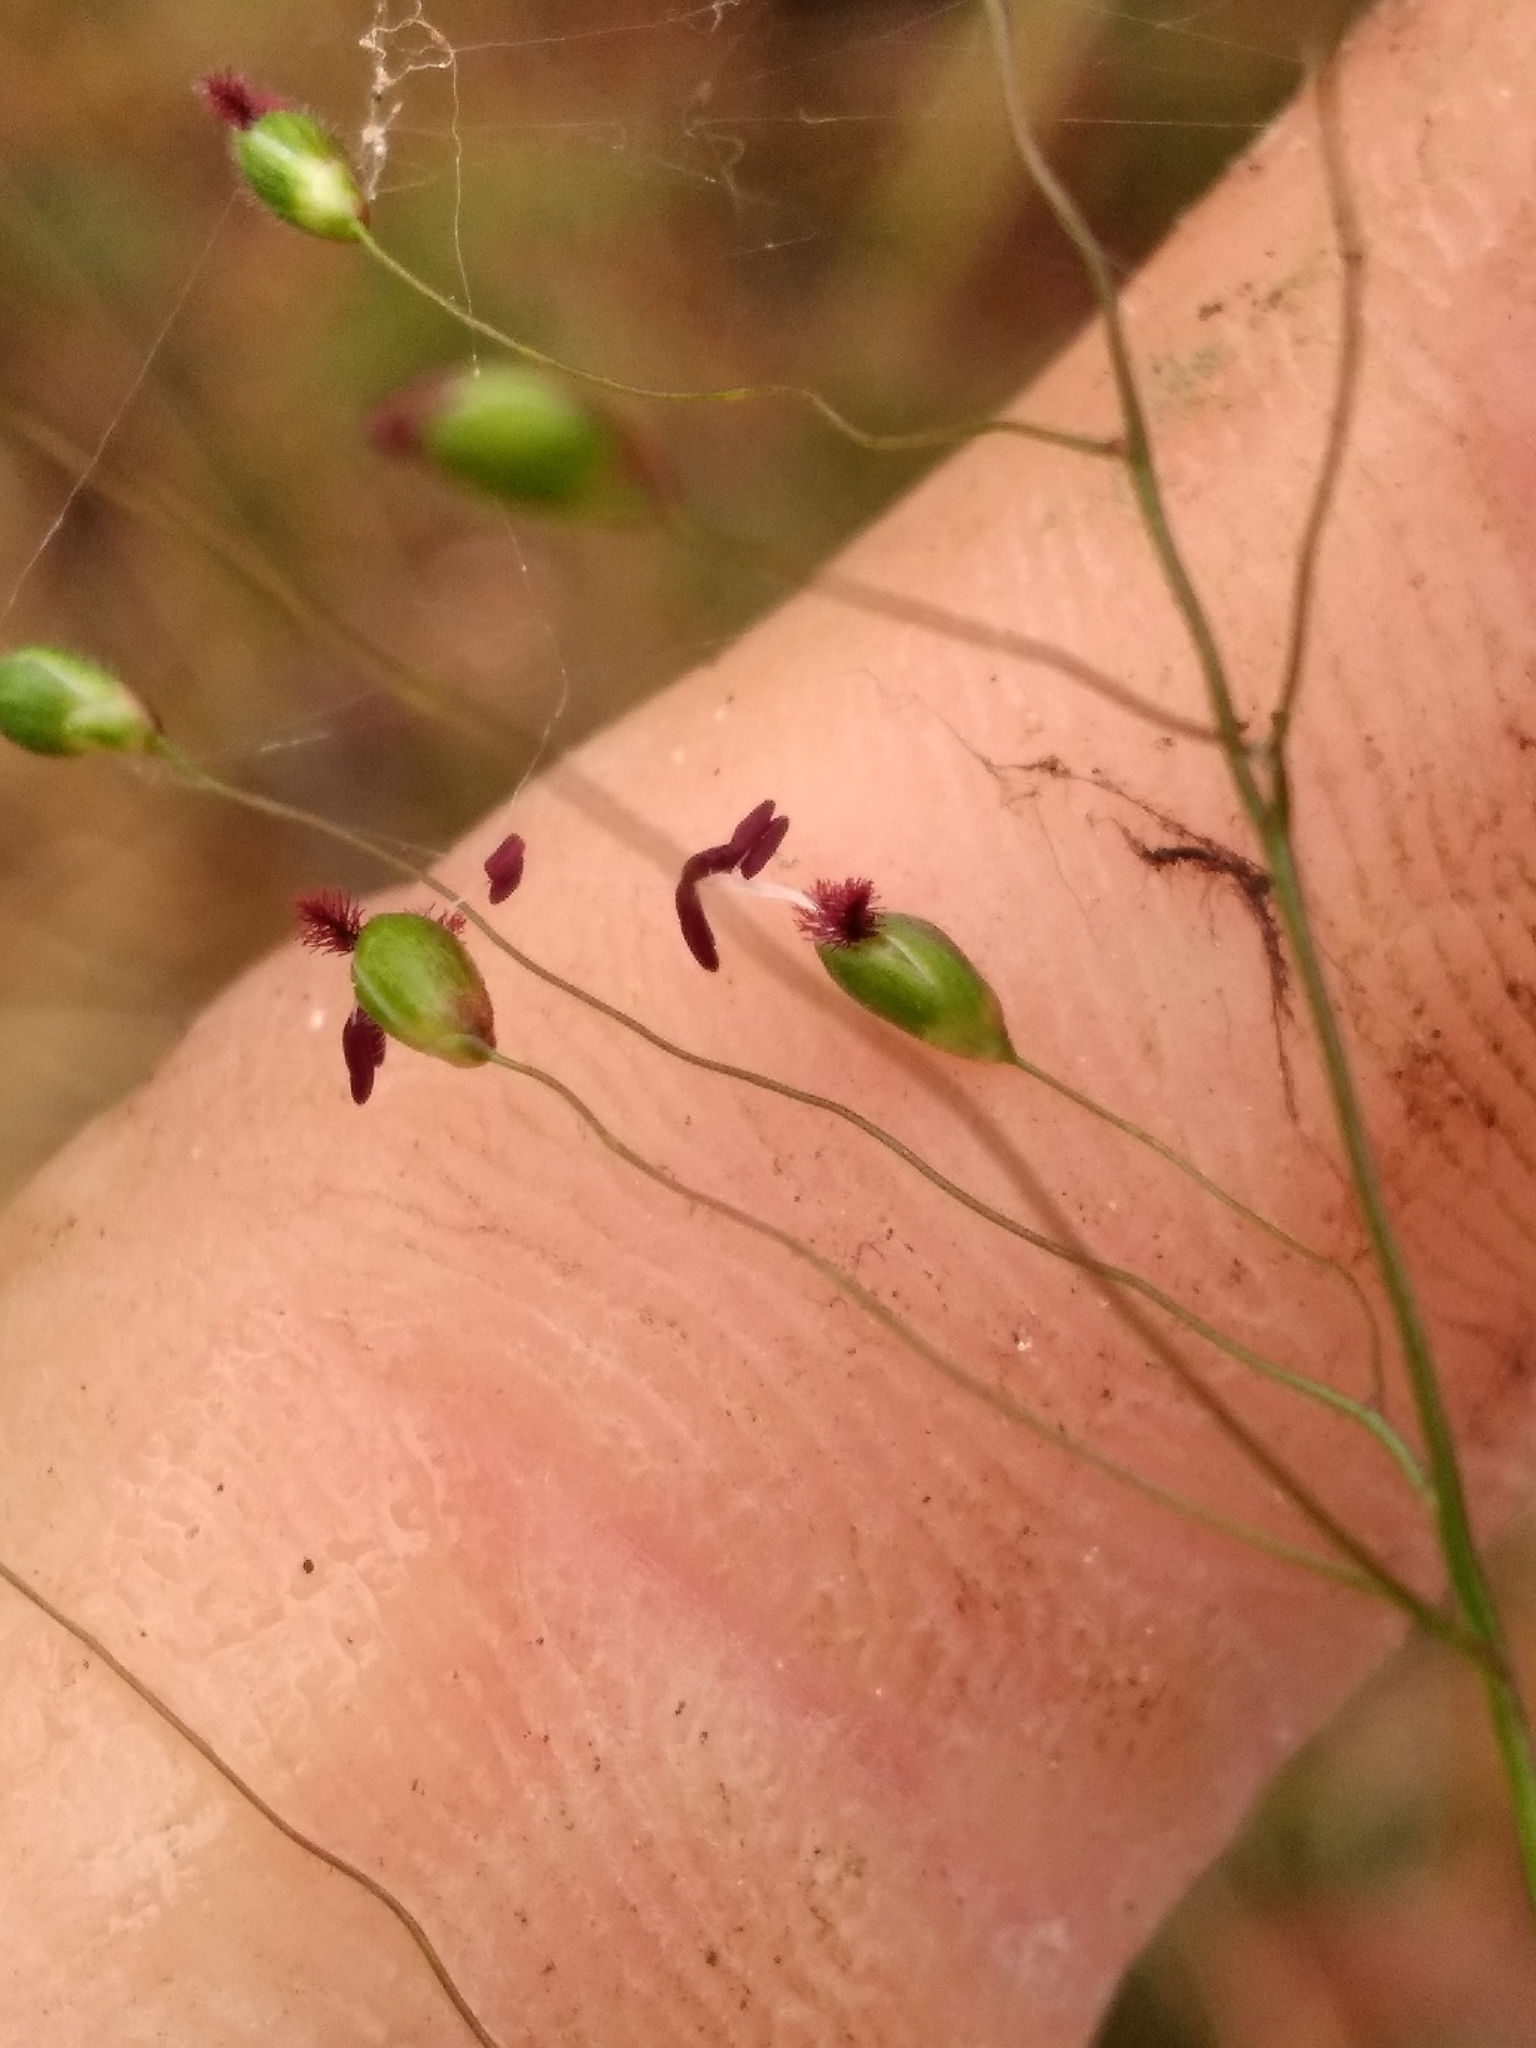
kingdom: Plantae
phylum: Tracheophyta
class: Liliopsida
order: Poales
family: Poaceae
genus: Dichanthelium
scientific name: Dichanthelium commutatum
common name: Variable witchgrass
